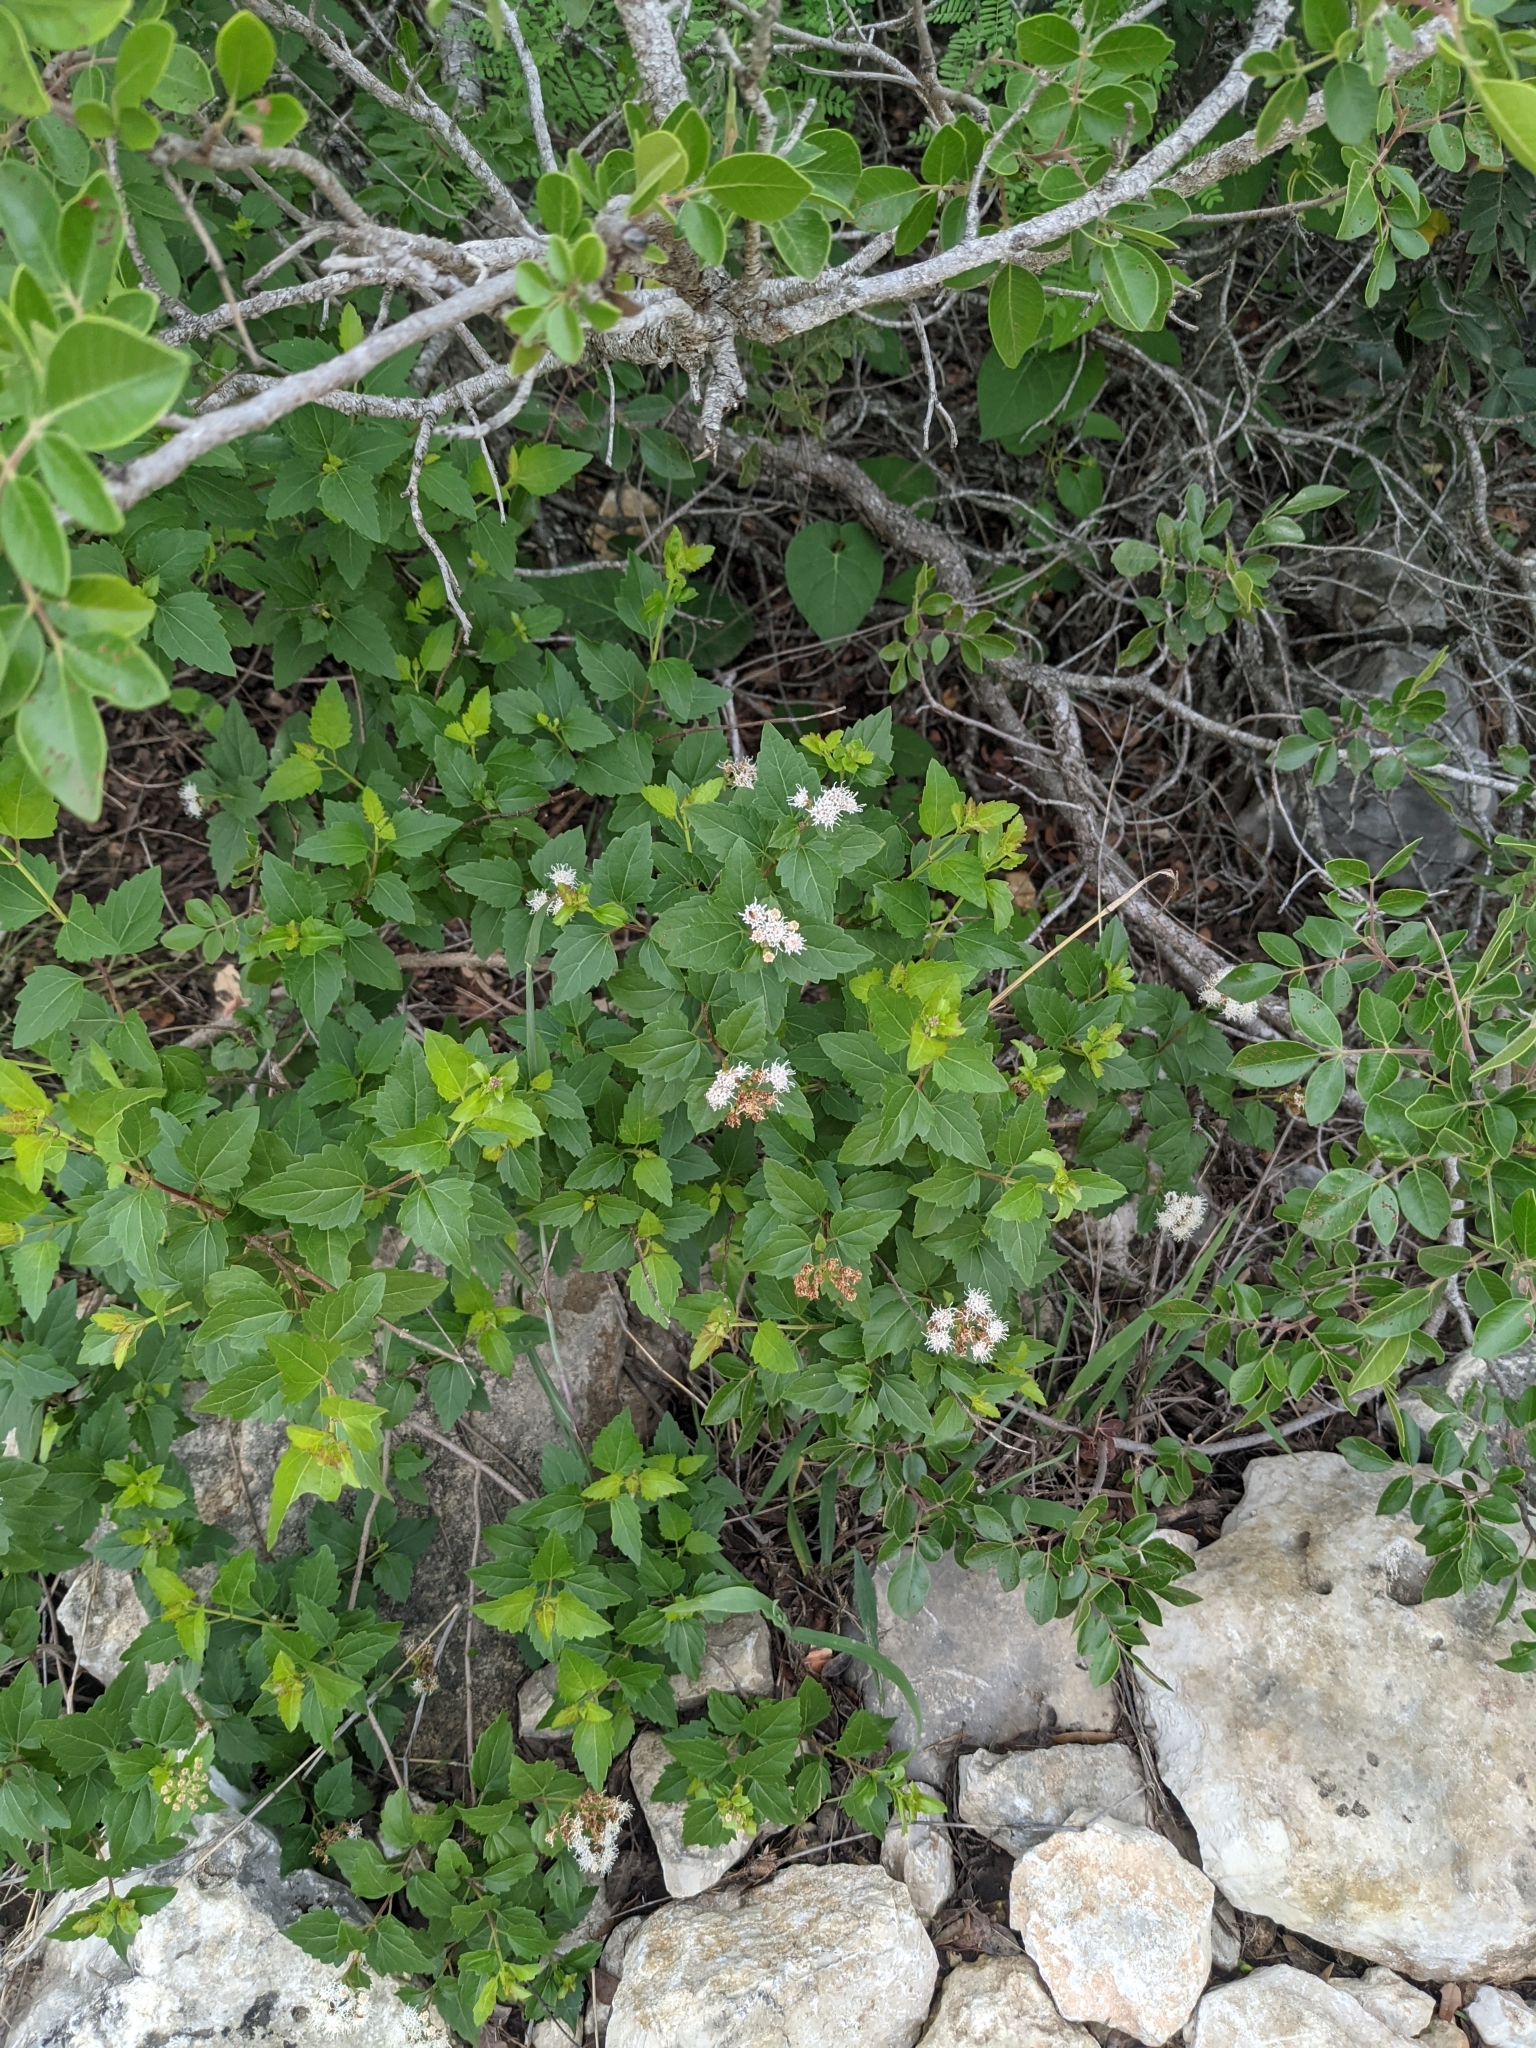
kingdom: Plantae
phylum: Tracheophyta
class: Magnoliopsida
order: Asterales
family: Asteraceae
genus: Ageratina
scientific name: Ageratina havanensis
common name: Havana snakeroot
